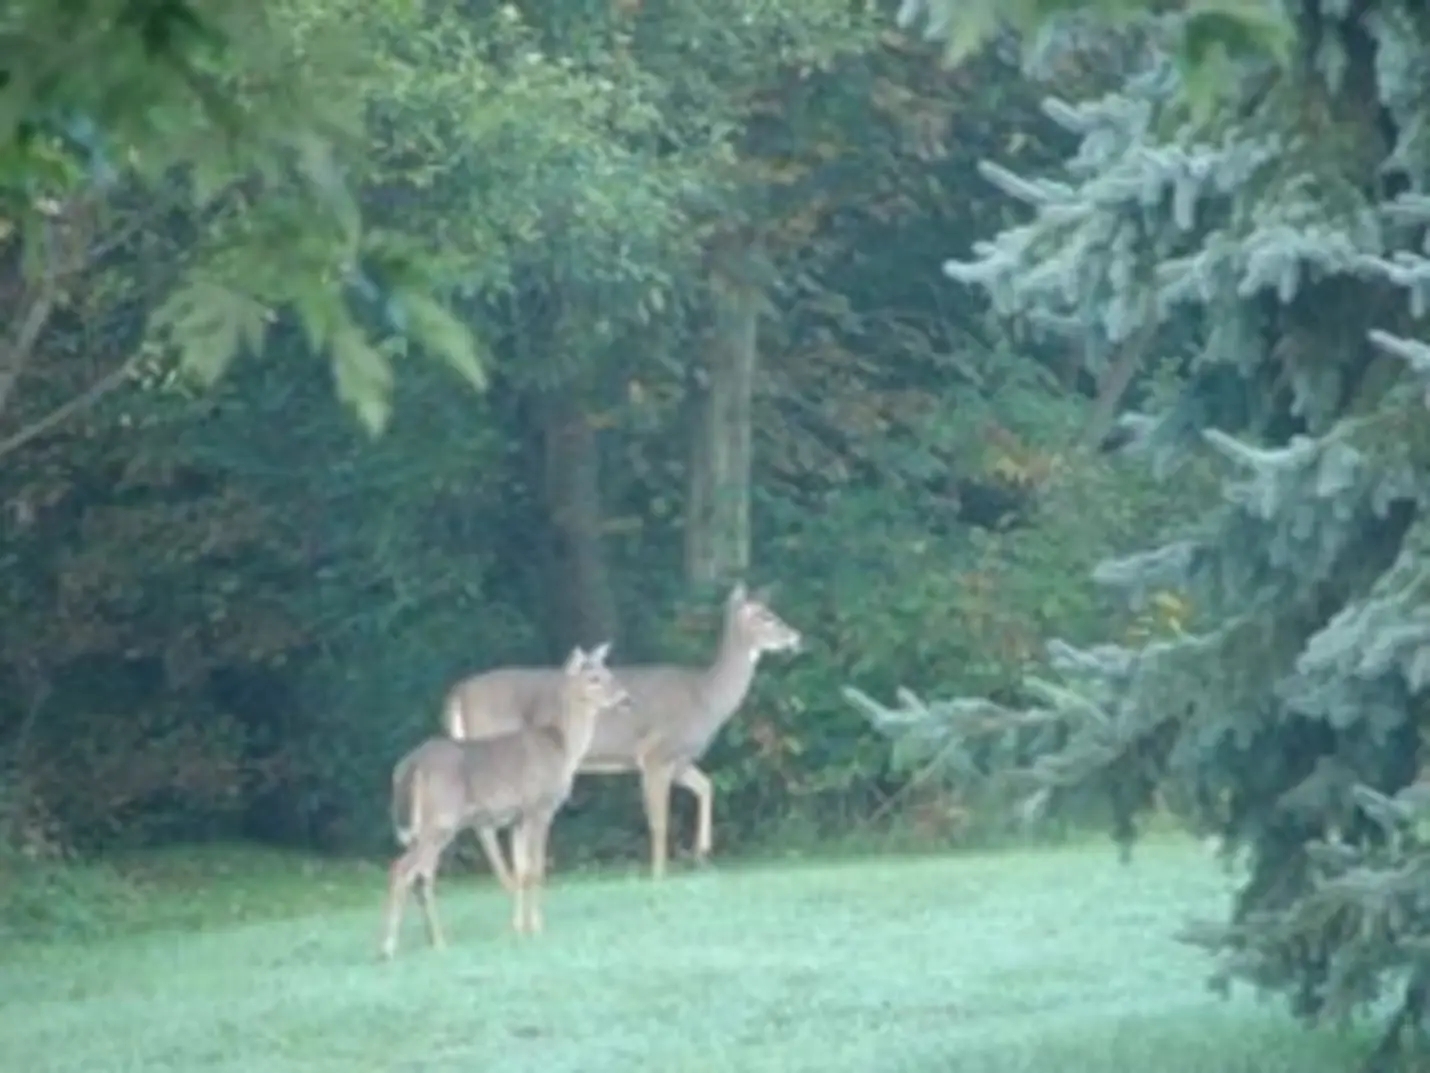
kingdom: Animalia
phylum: Chordata
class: Mammalia
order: Artiodactyla
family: Cervidae
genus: Odocoileus
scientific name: Odocoileus virginianus
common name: White-tailed deer
